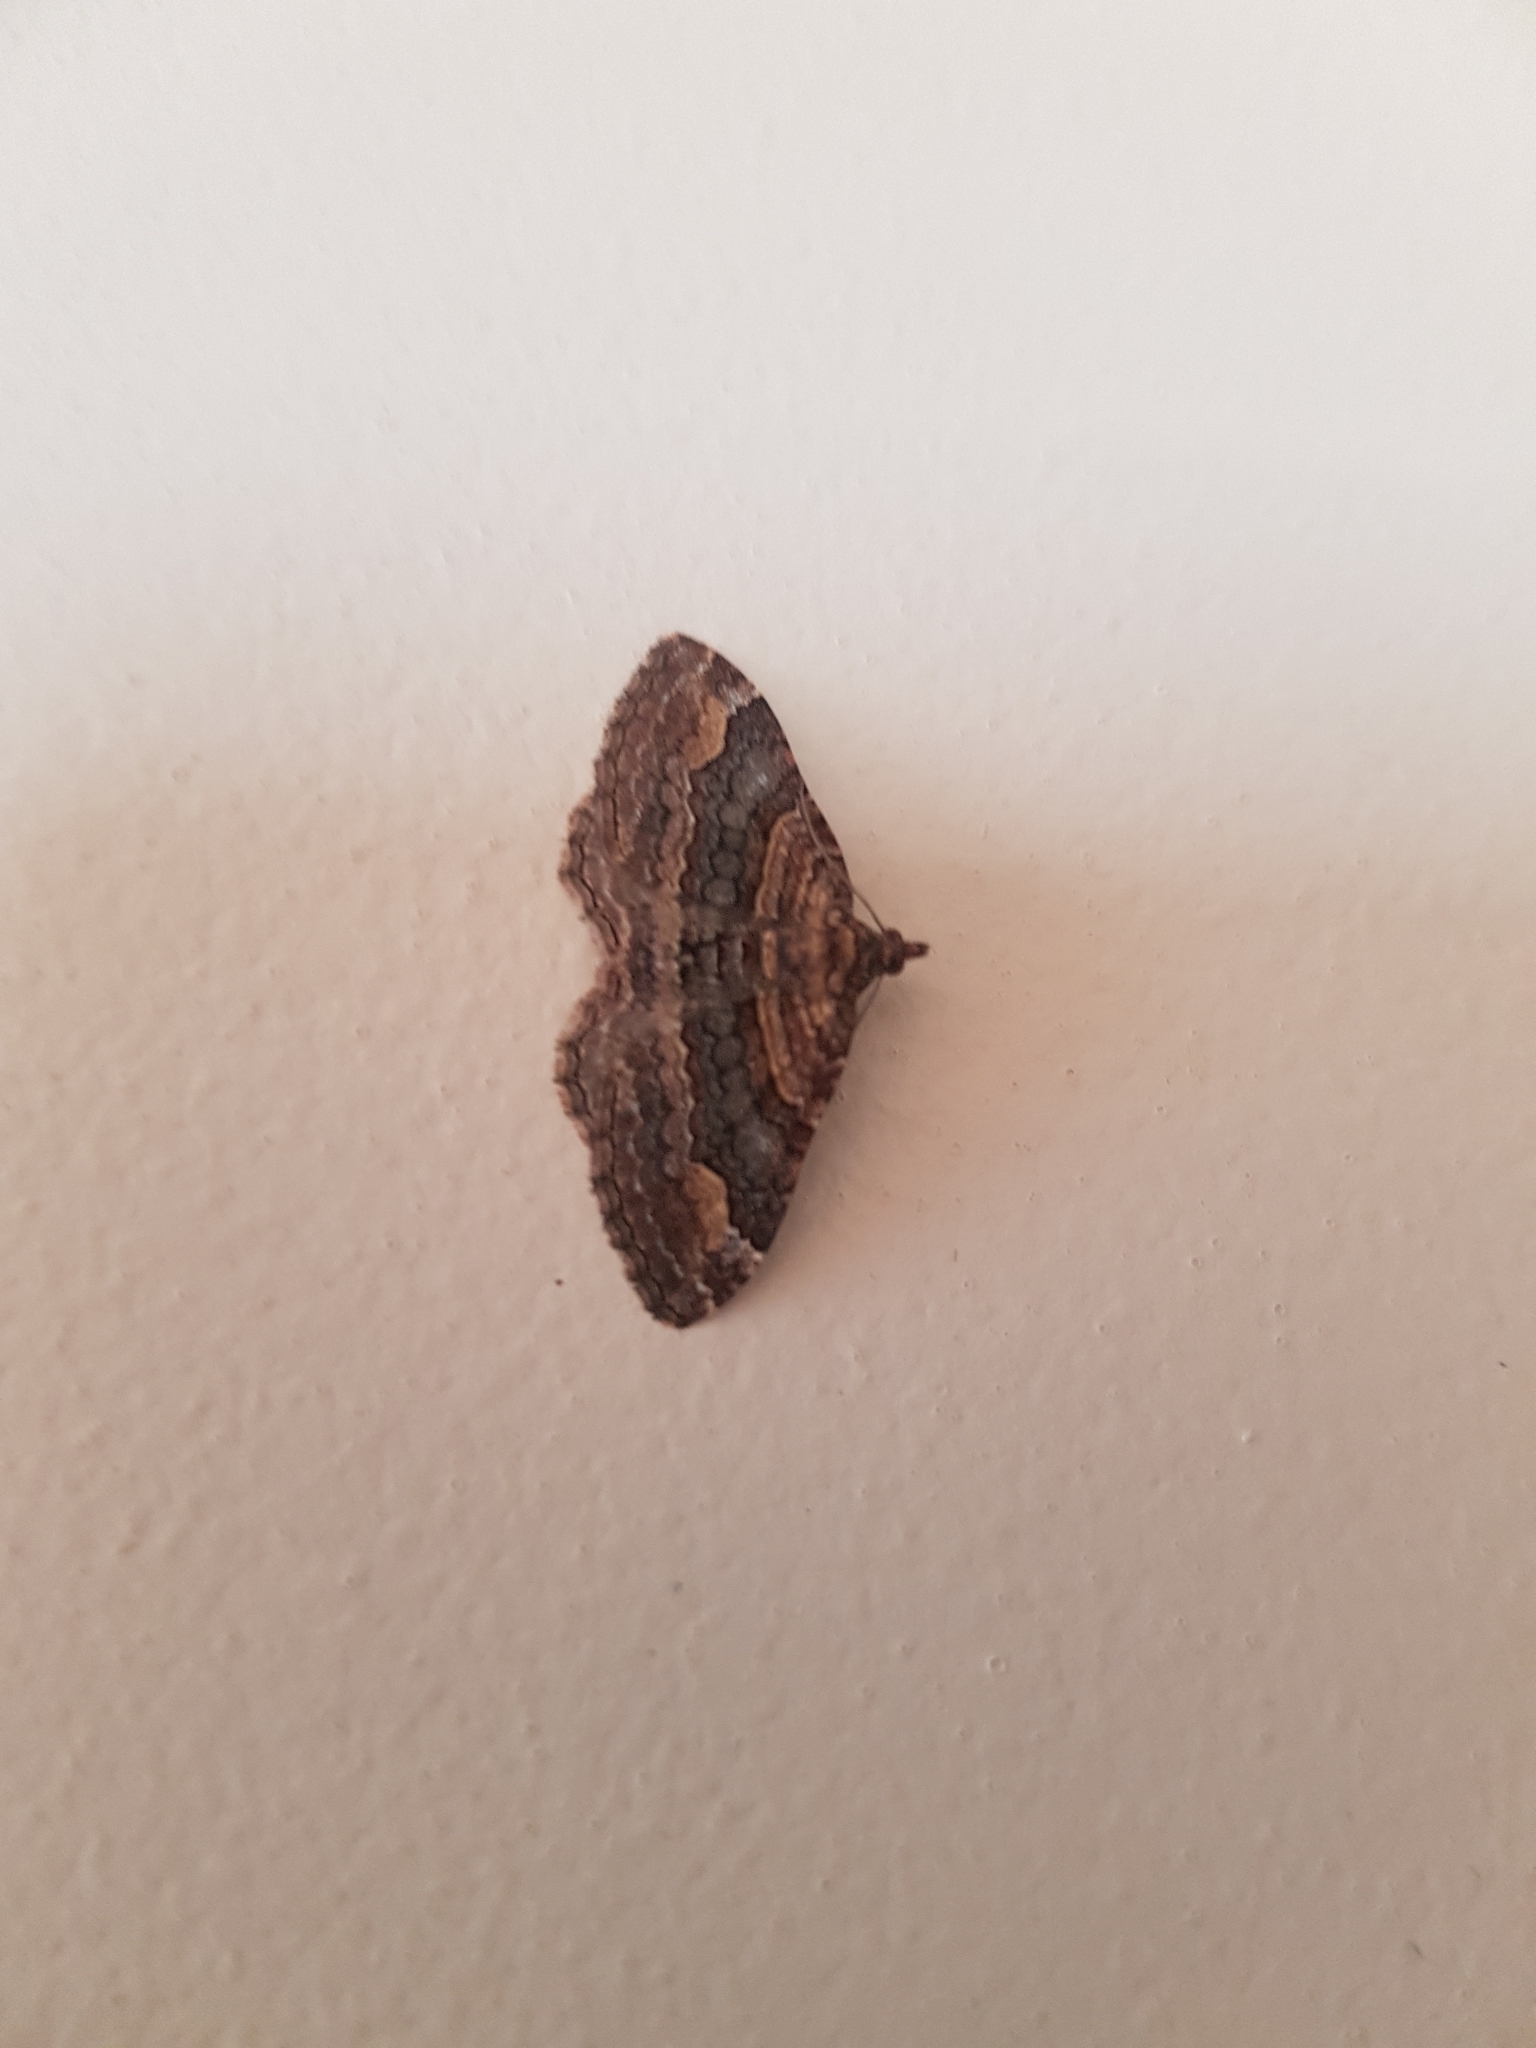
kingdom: Animalia
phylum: Arthropoda
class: Insecta
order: Lepidoptera
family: Geometridae
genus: Epyaxa
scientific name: Epyaxa lucidata
